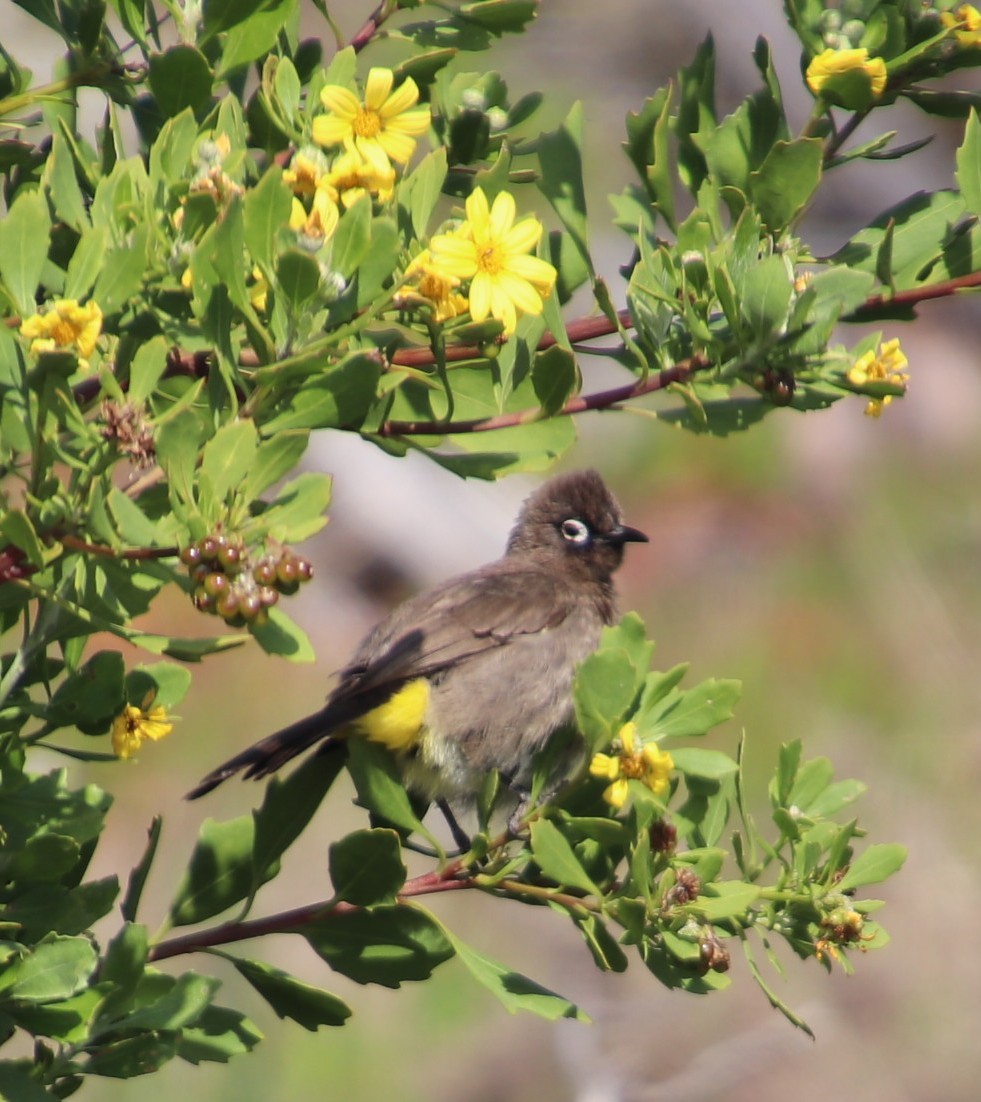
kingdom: Animalia
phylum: Chordata
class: Aves
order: Passeriformes
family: Pycnonotidae
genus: Pycnonotus
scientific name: Pycnonotus capensis
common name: Cape bulbul
